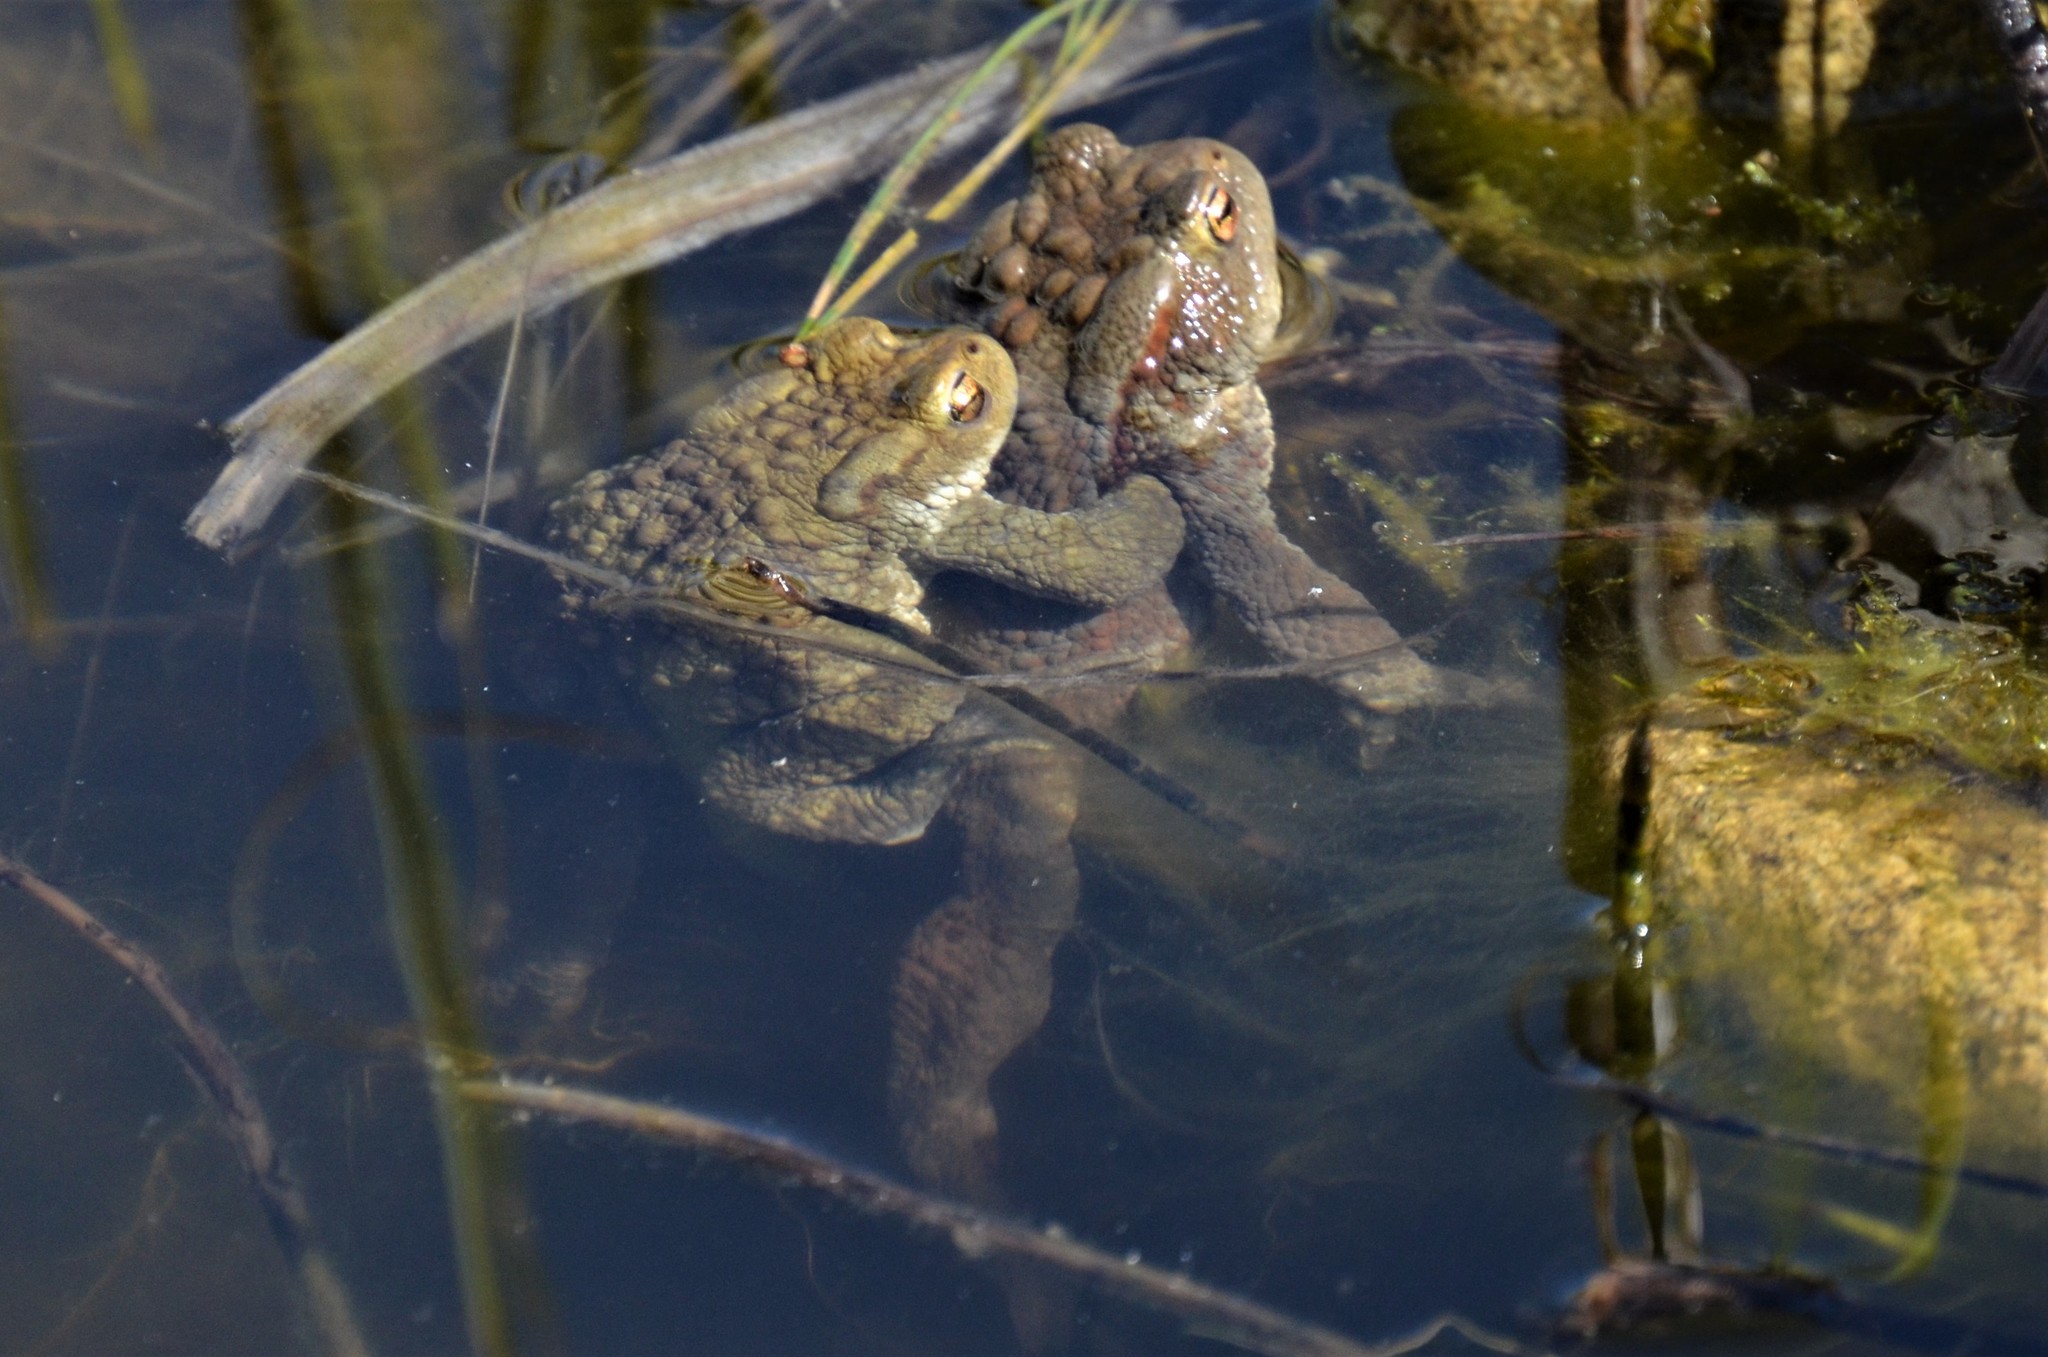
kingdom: Animalia
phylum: Chordata
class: Amphibia
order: Anura
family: Bufonidae
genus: Bufo
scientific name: Bufo bufo
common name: Common toad
